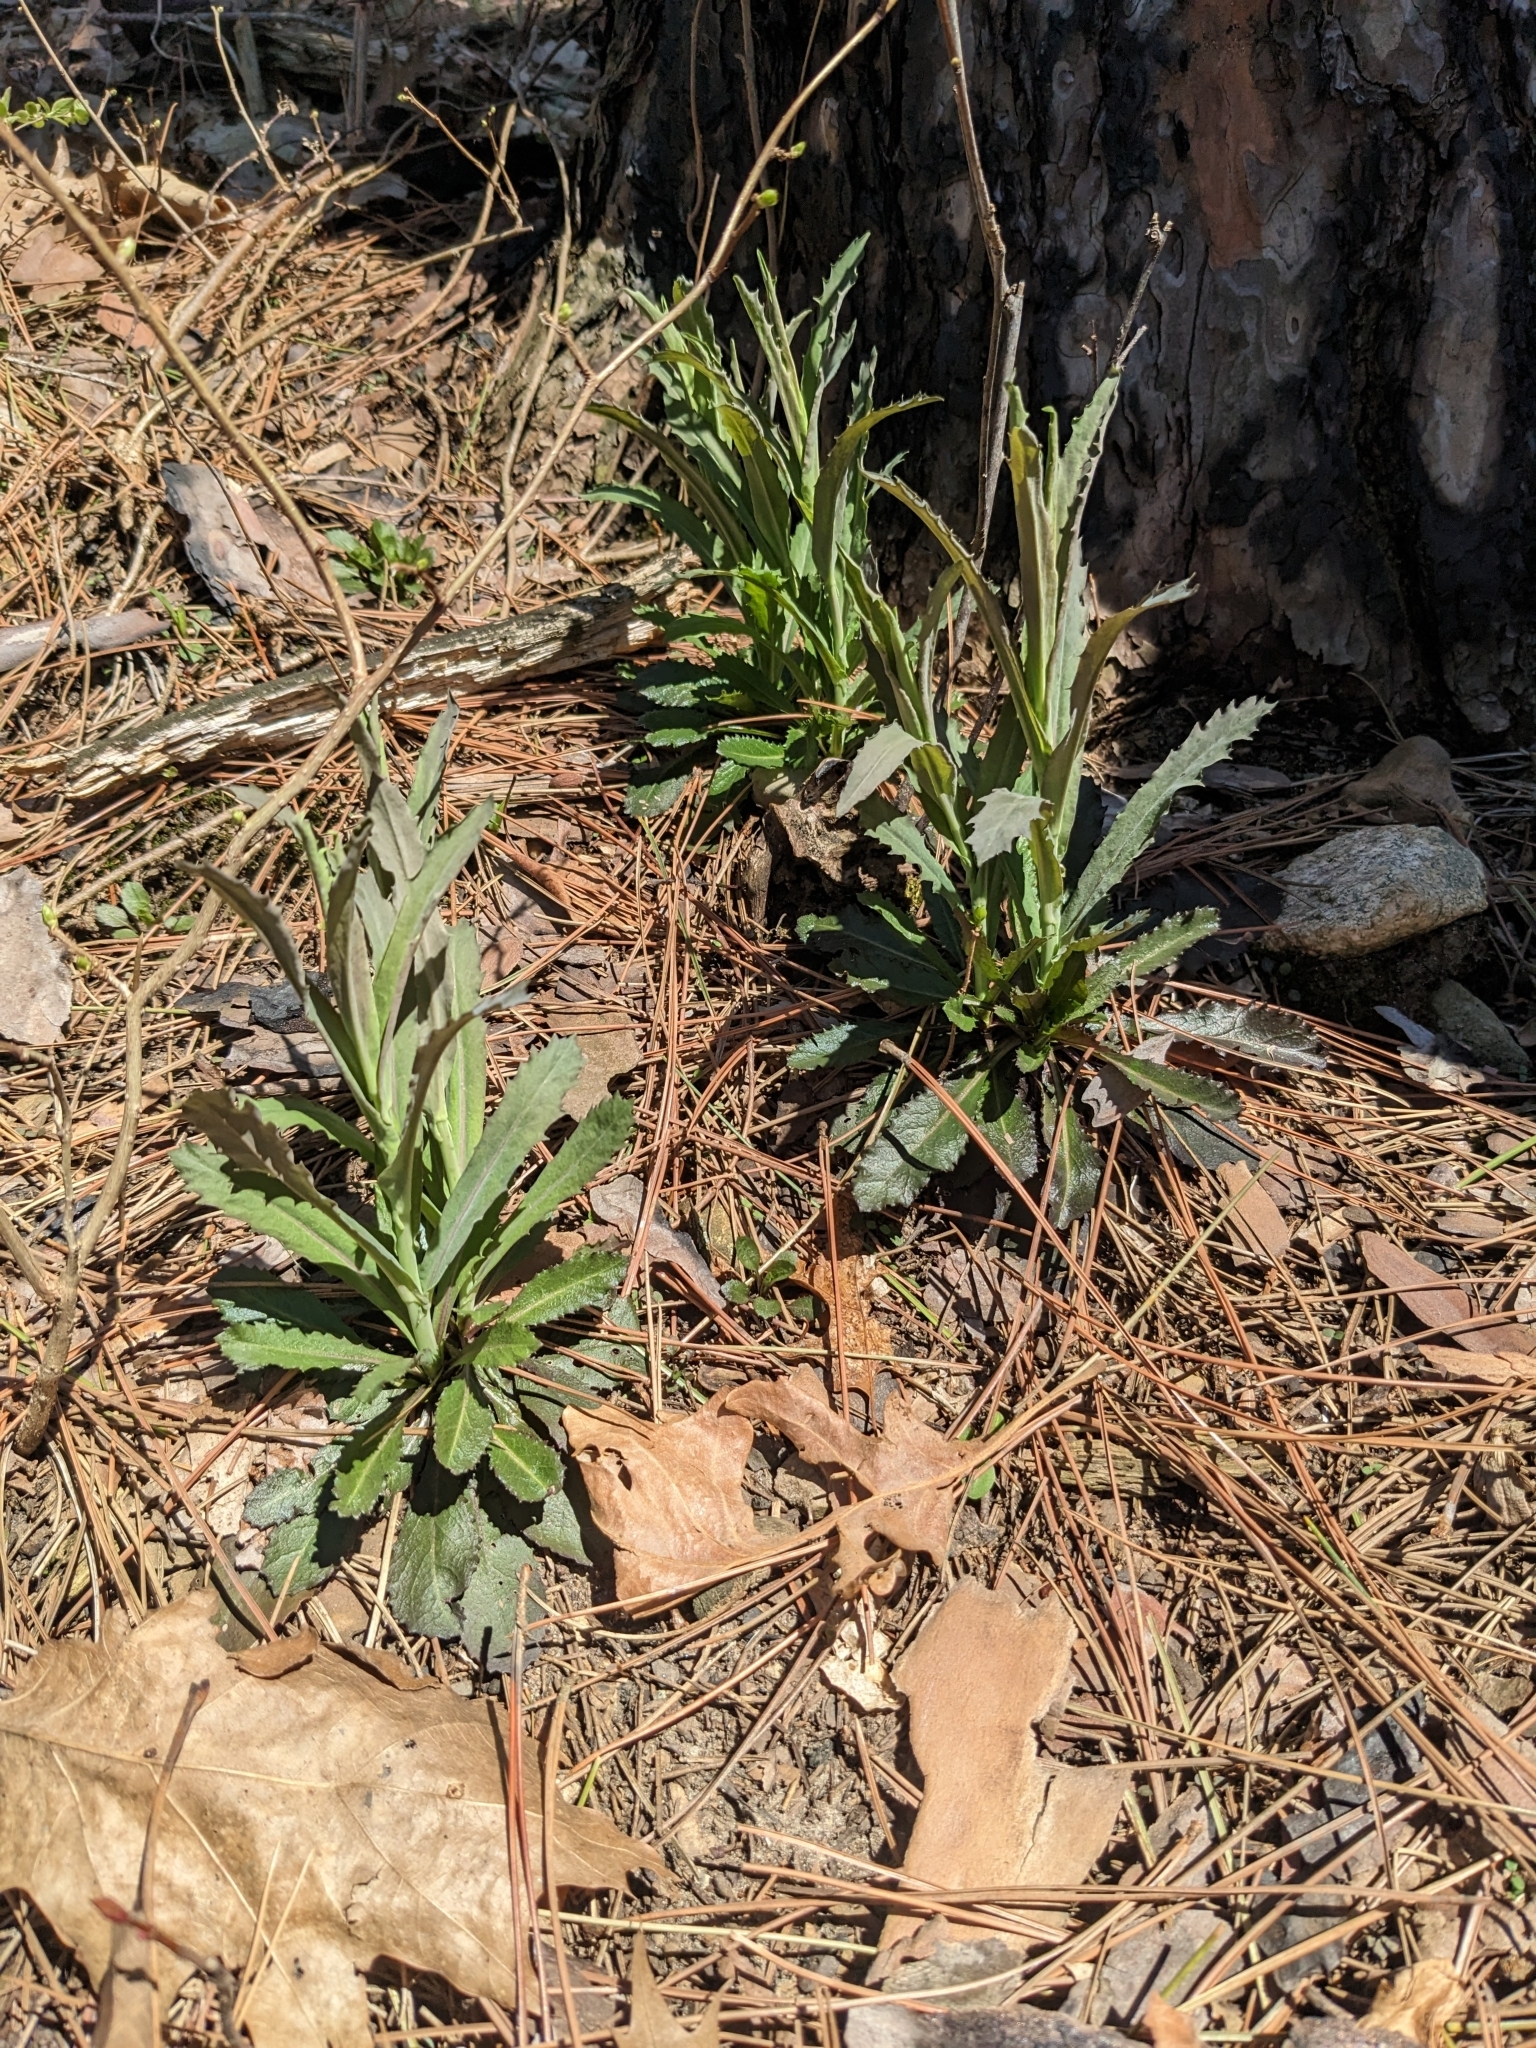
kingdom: Plantae
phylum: Tracheophyta
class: Magnoliopsida
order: Brassicales
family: Brassicaceae
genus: Borodinia
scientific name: Borodinia laevigata
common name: Smooth rockcress
